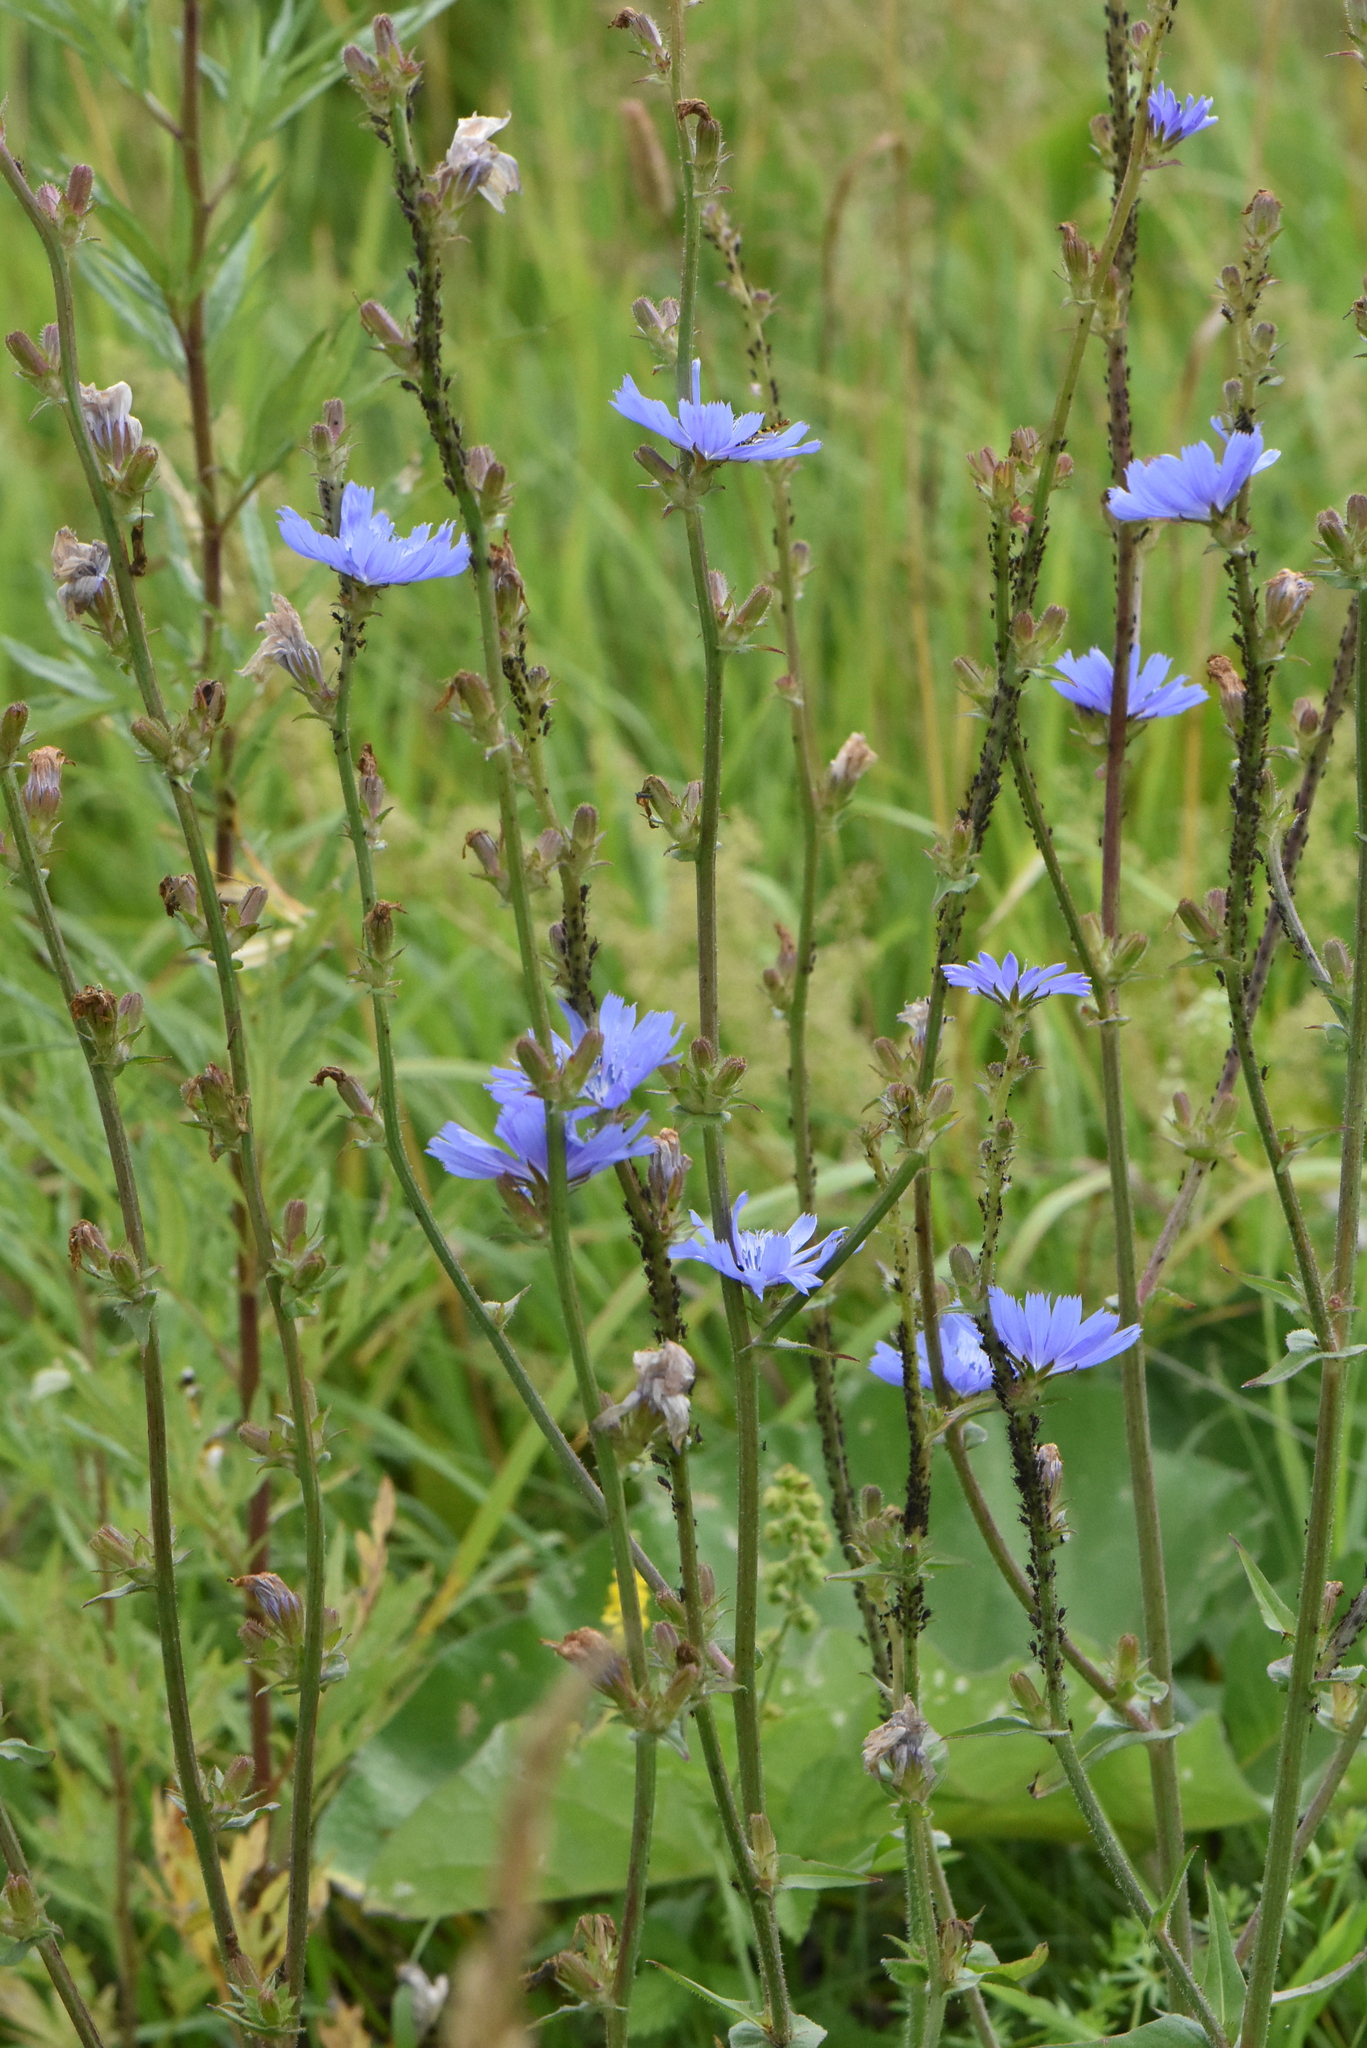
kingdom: Plantae
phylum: Tracheophyta
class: Magnoliopsida
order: Asterales
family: Asteraceae
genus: Cichorium
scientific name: Cichorium intybus
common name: Chicory
